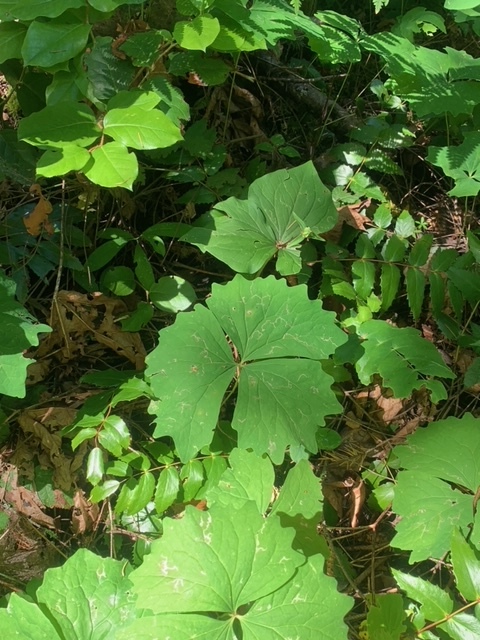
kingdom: Plantae
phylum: Tracheophyta
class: Magnoliopsida
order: Ranunculales
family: Berberidaceae
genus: Achlys
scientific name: Achlys triphylla
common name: Vanilla-leaf
